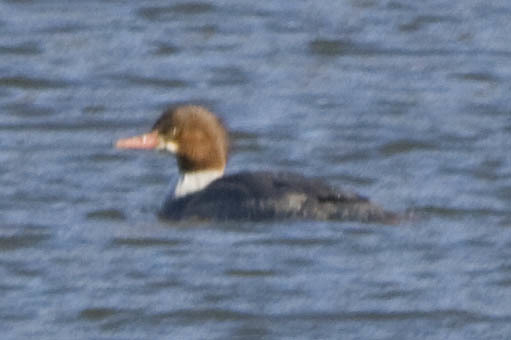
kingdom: Animalia
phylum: Chordata
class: Aves
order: Anseriformes
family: Anatidae
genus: Mergus
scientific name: Mergus merganser
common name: Common merganser
